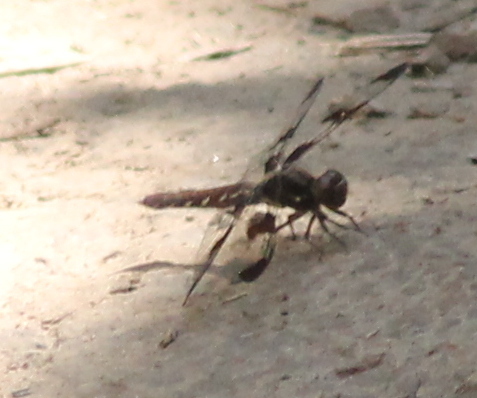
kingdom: Animalia
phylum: Arthropoda
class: Insecta
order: Odonata
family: Libellulidae
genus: Plathemis
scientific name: Plathemis lydia
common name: Common whitetail
